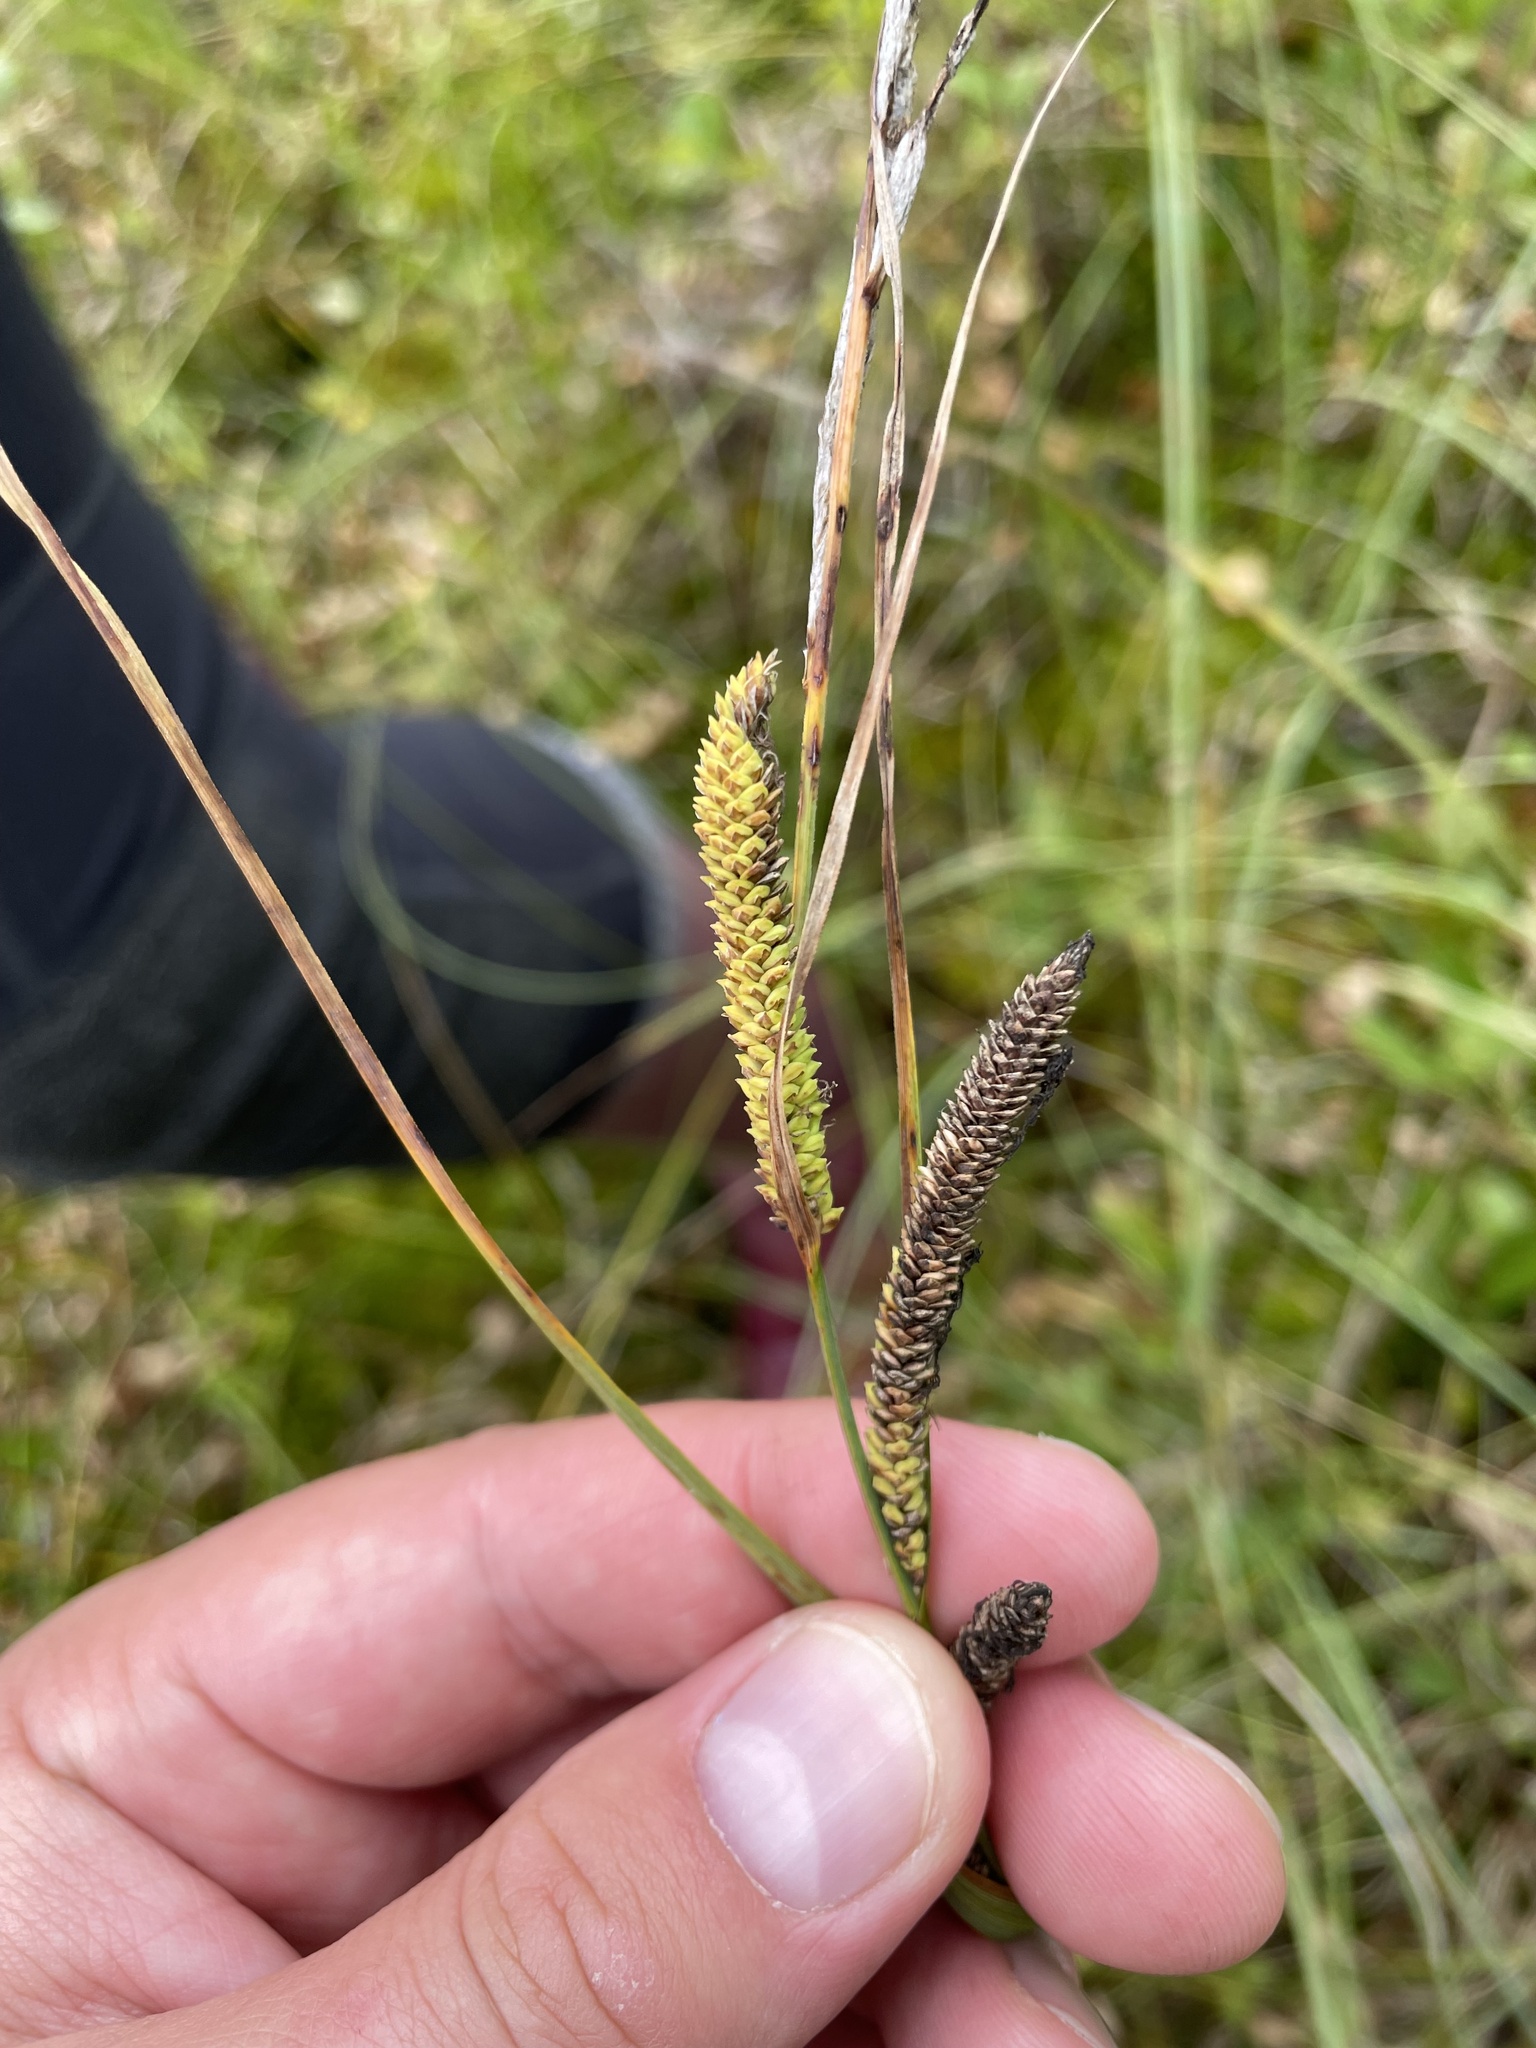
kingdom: Plantae
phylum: Tracheophyta
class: Liliopsida
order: Poales
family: Cyperaceae
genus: Carex
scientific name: Carex aquatilis
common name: Water sedge
